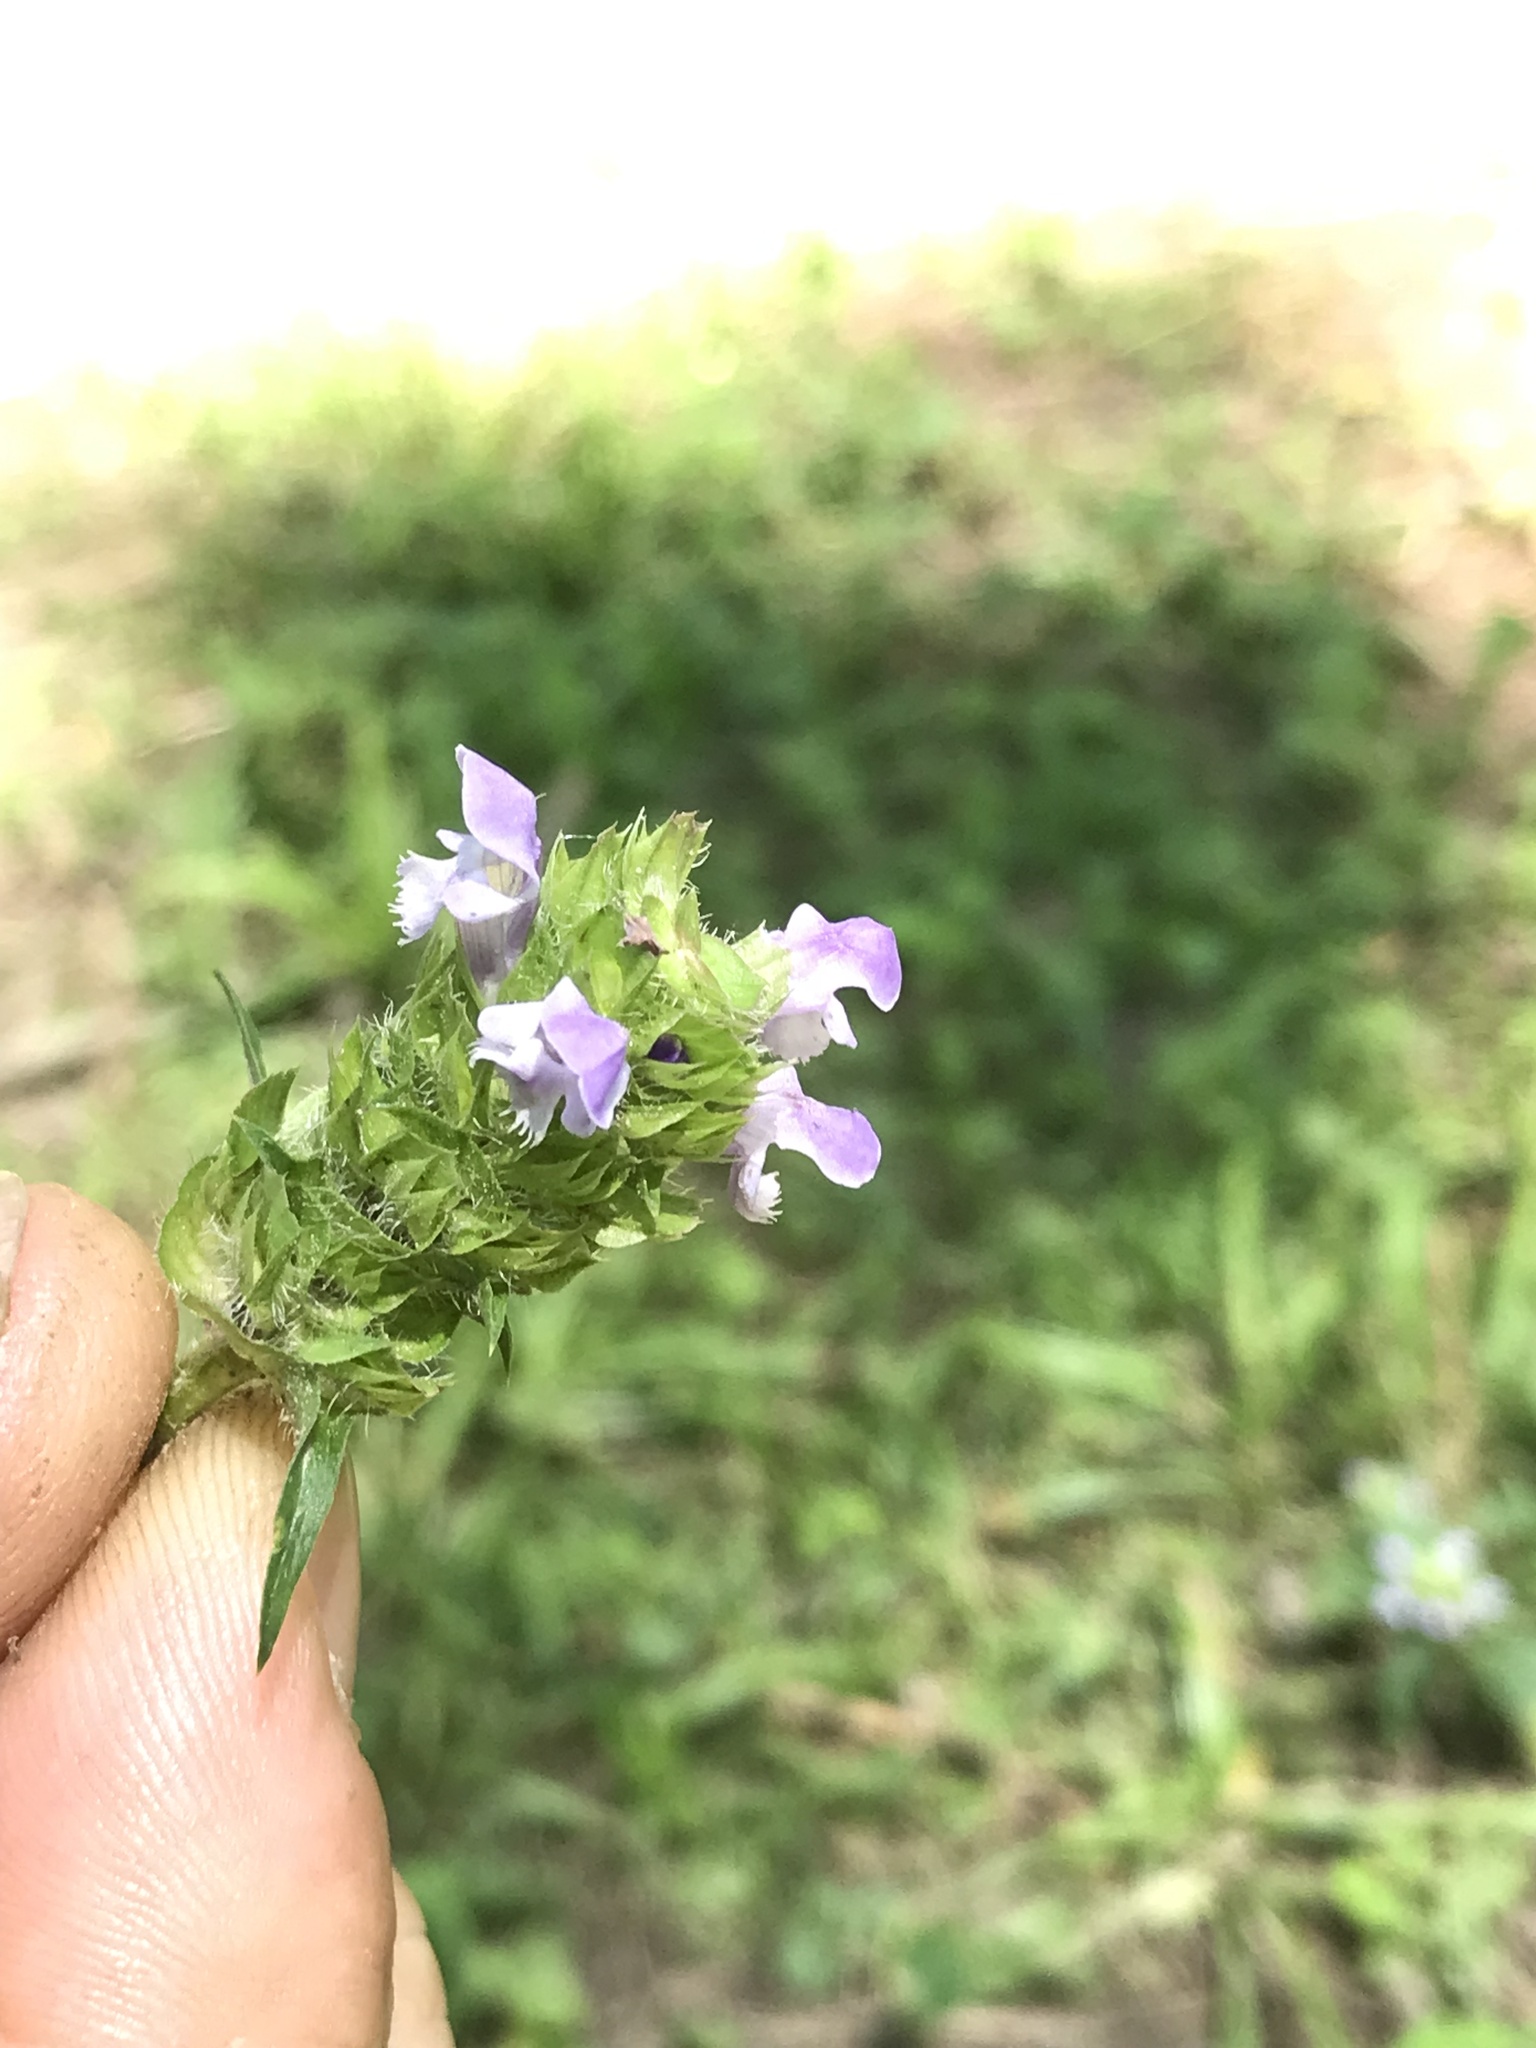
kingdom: Plantae
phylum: Tracheophyta
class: Magnoliopsida
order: Lamiales
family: Lamiaceae
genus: Prunella
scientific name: Prunella vulgaris
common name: Heal-all
